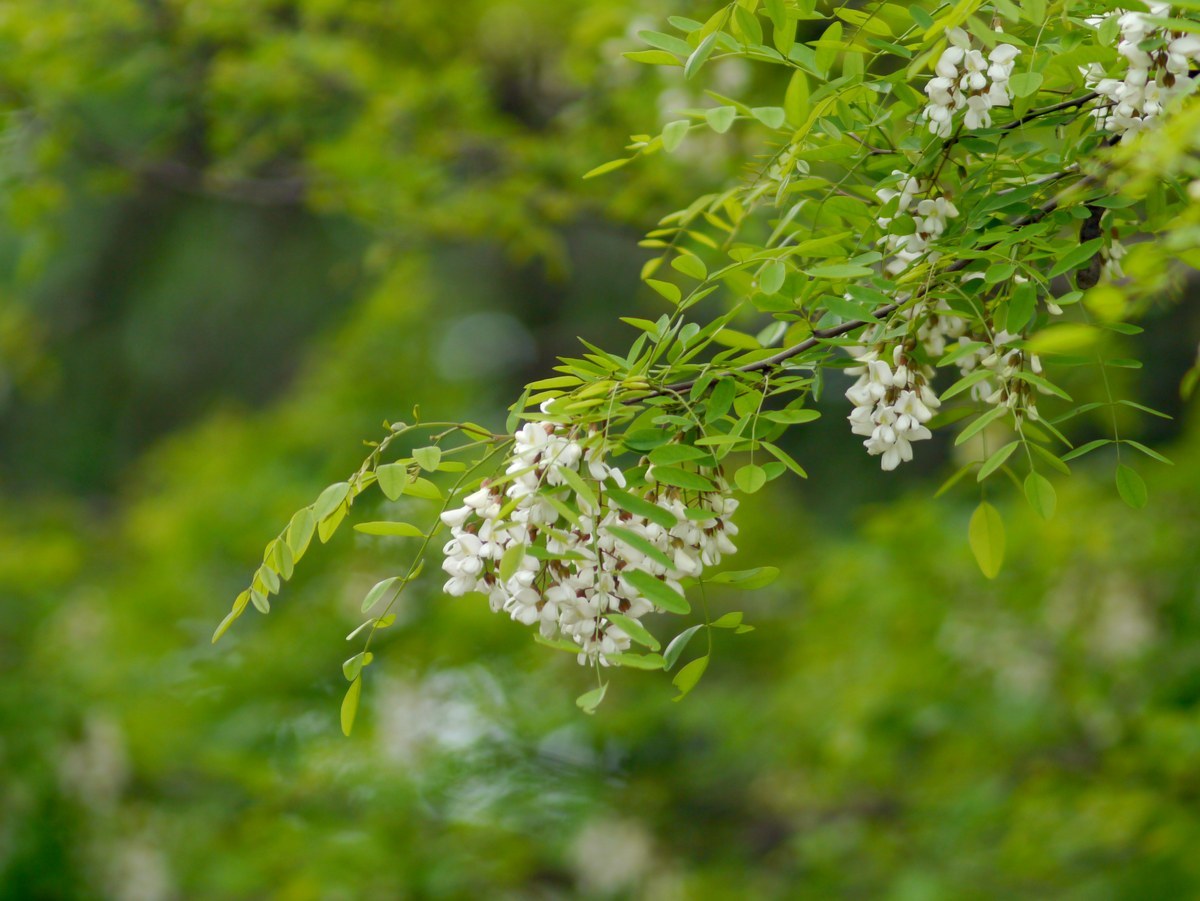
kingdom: Plantae
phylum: Tracheophyta
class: Magnoliopsida
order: Fabales
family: Fabaceae
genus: Robinia
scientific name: Robinia pseudoacacia
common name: Black locust
